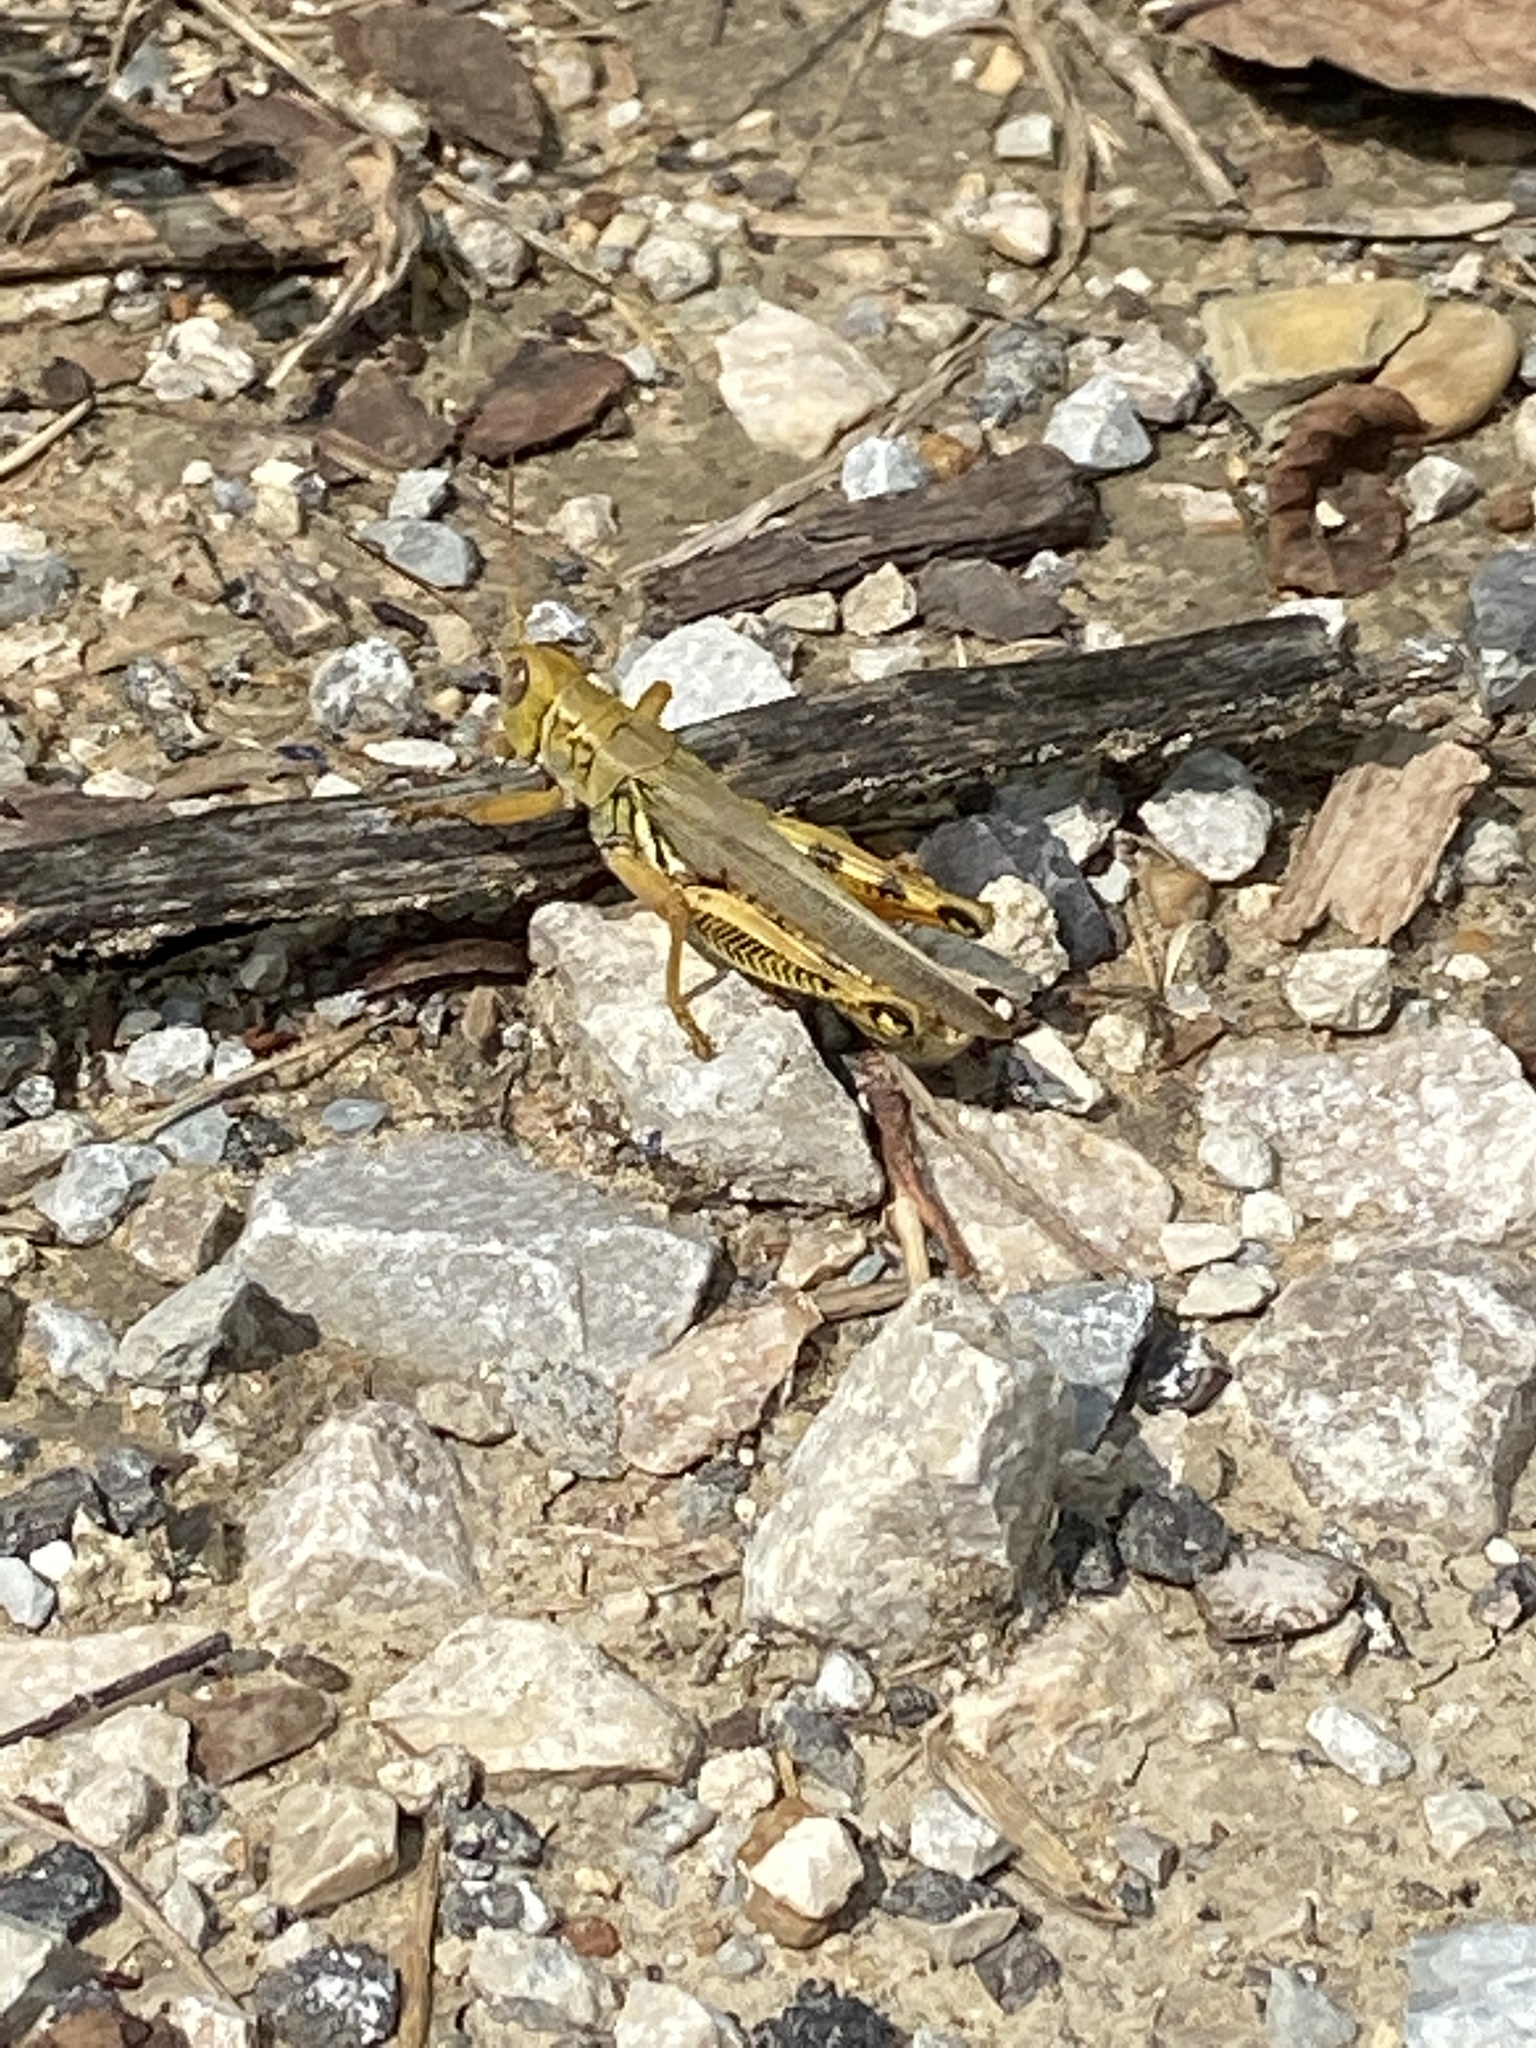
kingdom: Animalia
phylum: Arthropoda
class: Insecta
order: Orthoptera
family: Acrididae
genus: Melanoplus
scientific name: Melanoplus differentialis
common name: Differential grasshopper
